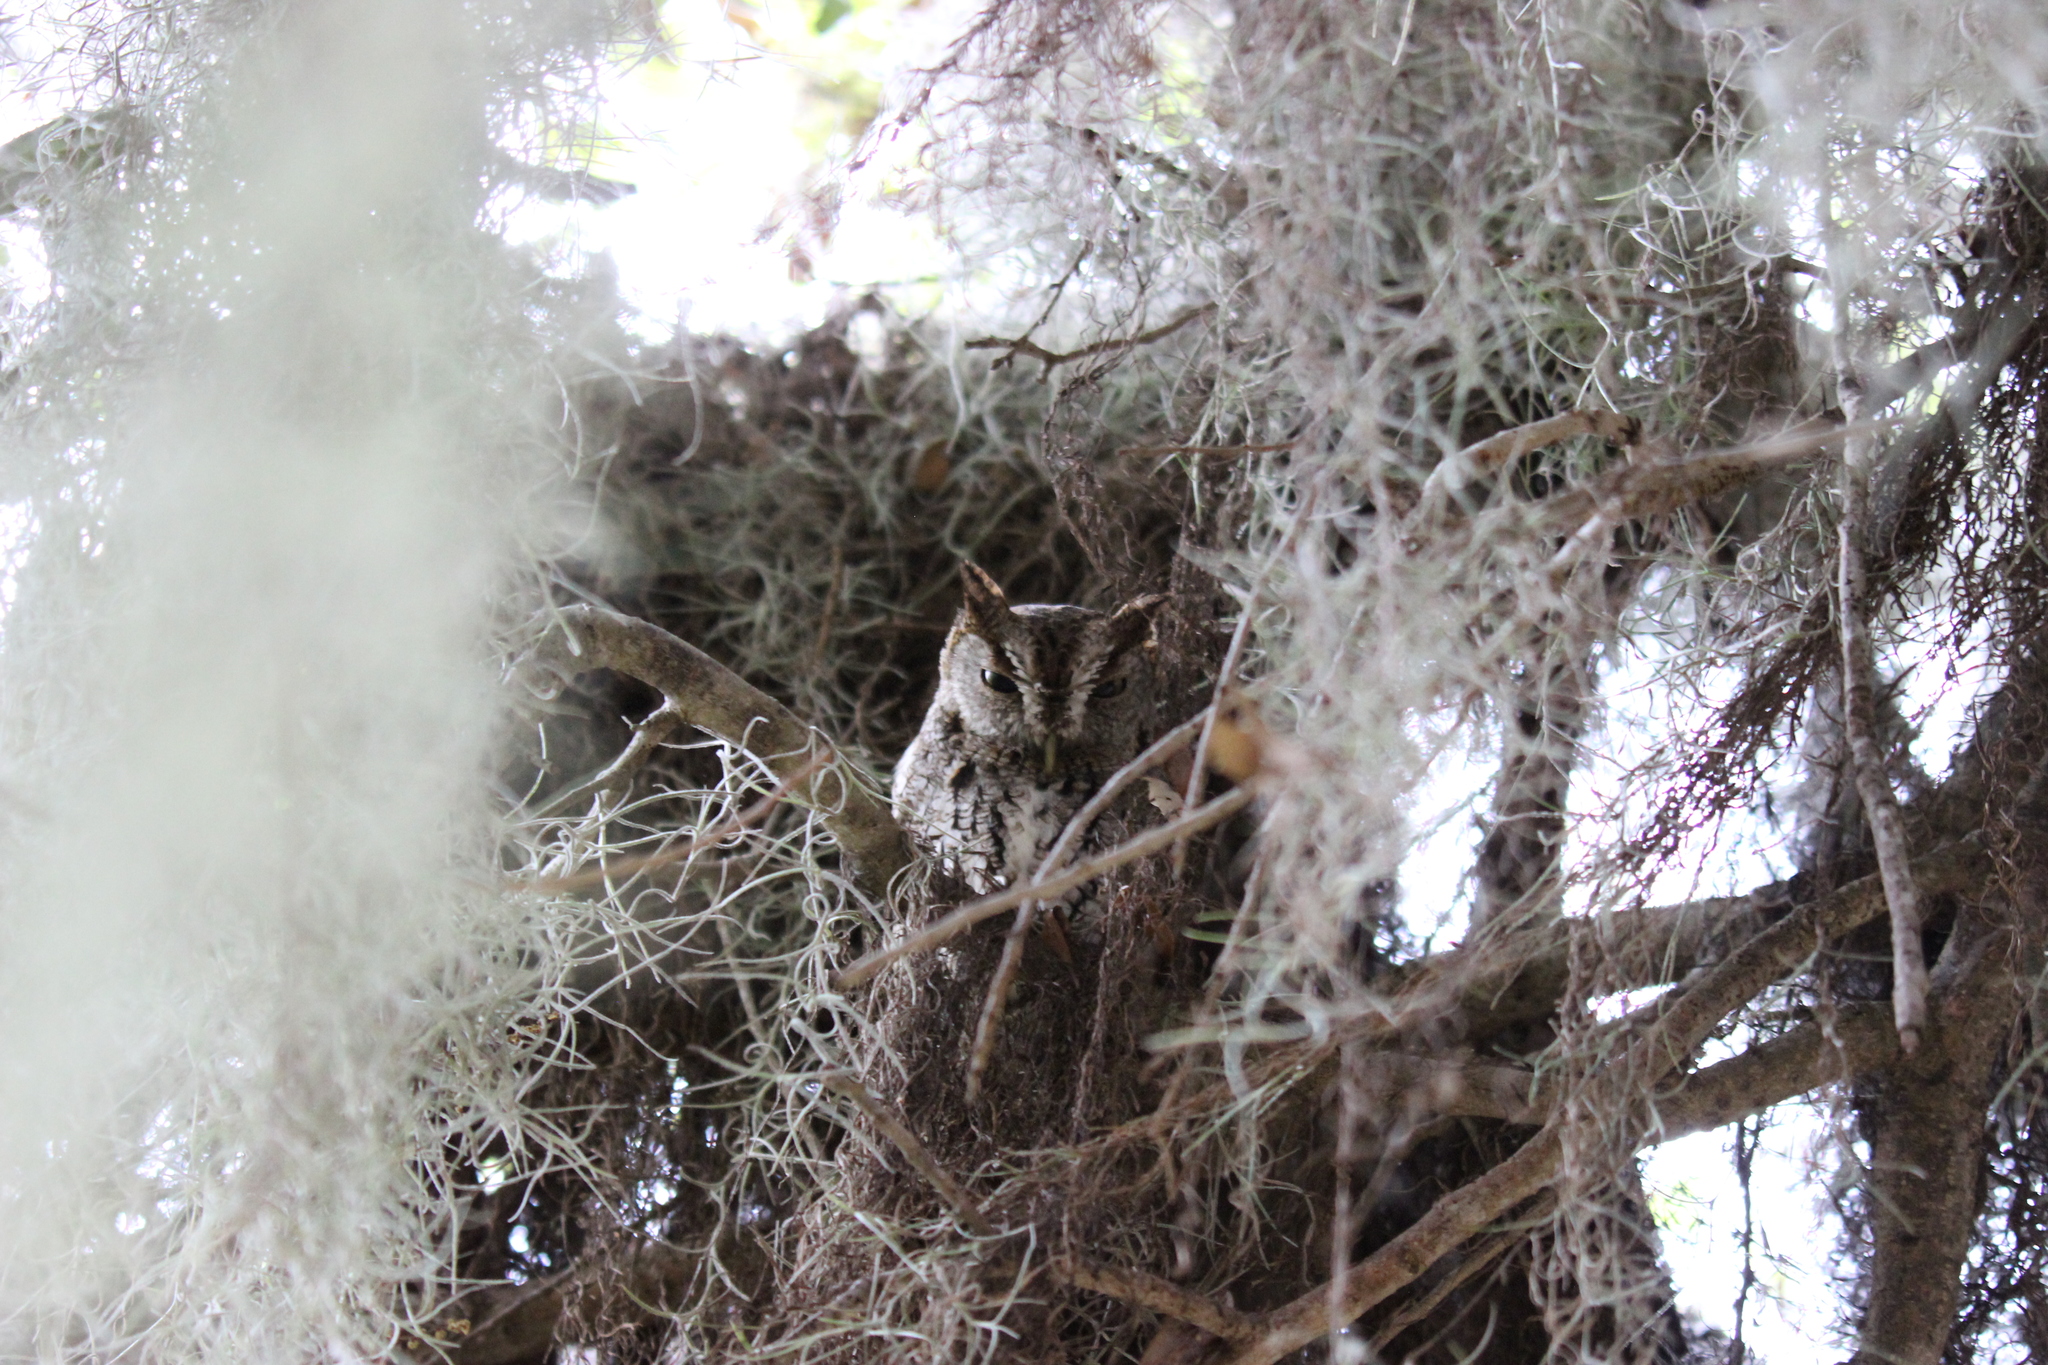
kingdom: Animalia
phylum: Chordata
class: Aves
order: Strigiformes
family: Strigidae
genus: Megascops
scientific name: Megascops asio
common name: Eastern screech-owl
